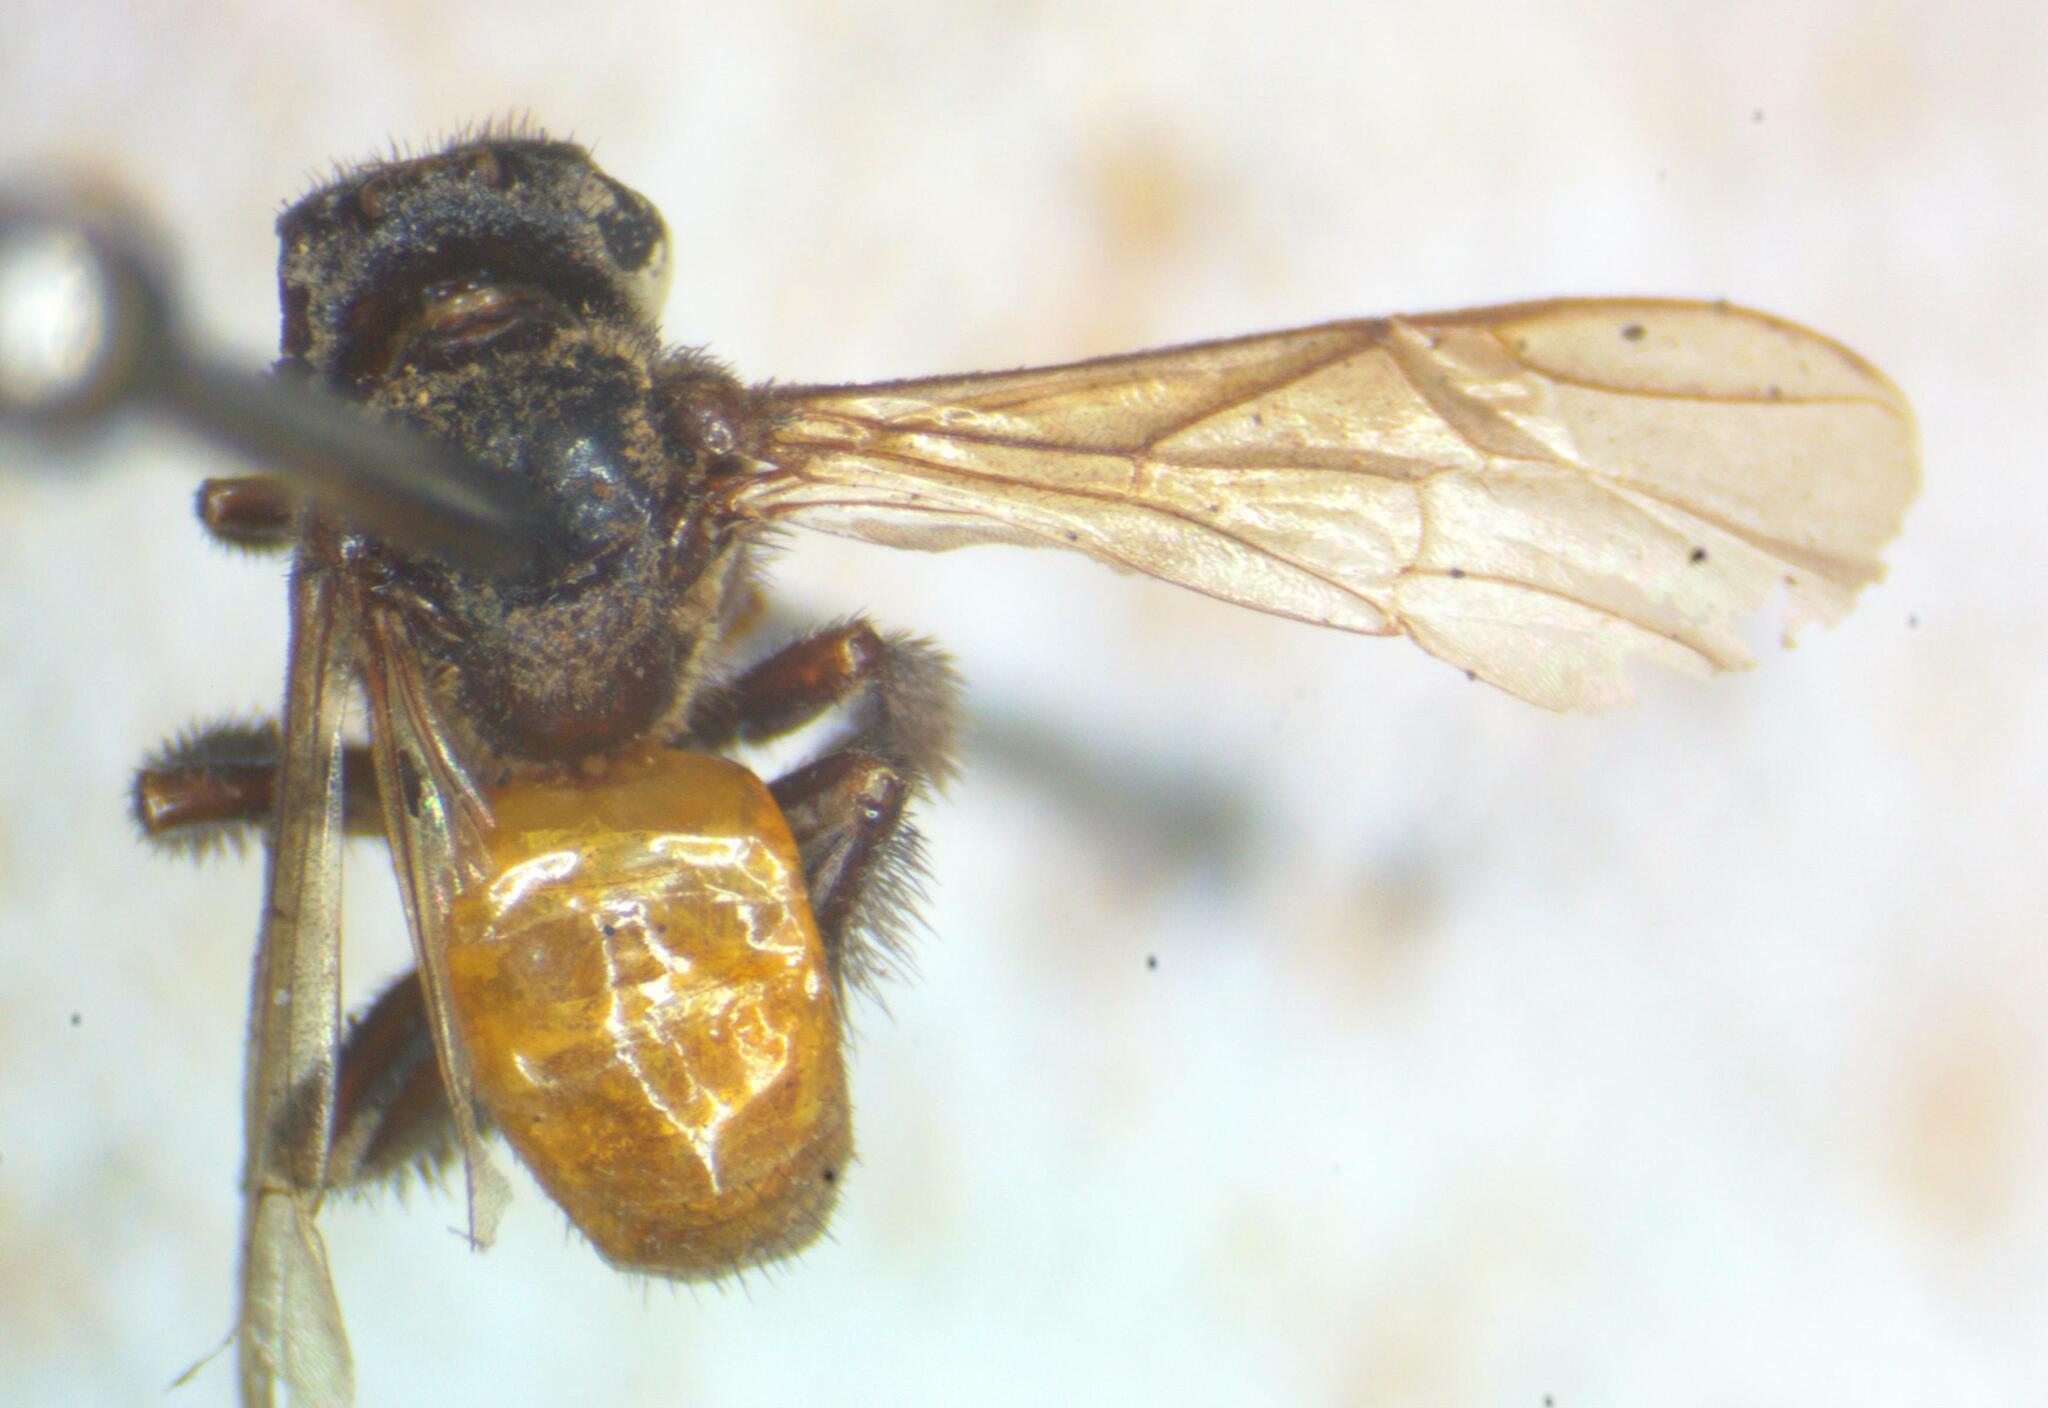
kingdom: Animalia
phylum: Arthropoda
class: Insecta
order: Hymenoptera
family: Apidae
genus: Trigona
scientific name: Trigona fulviventris
